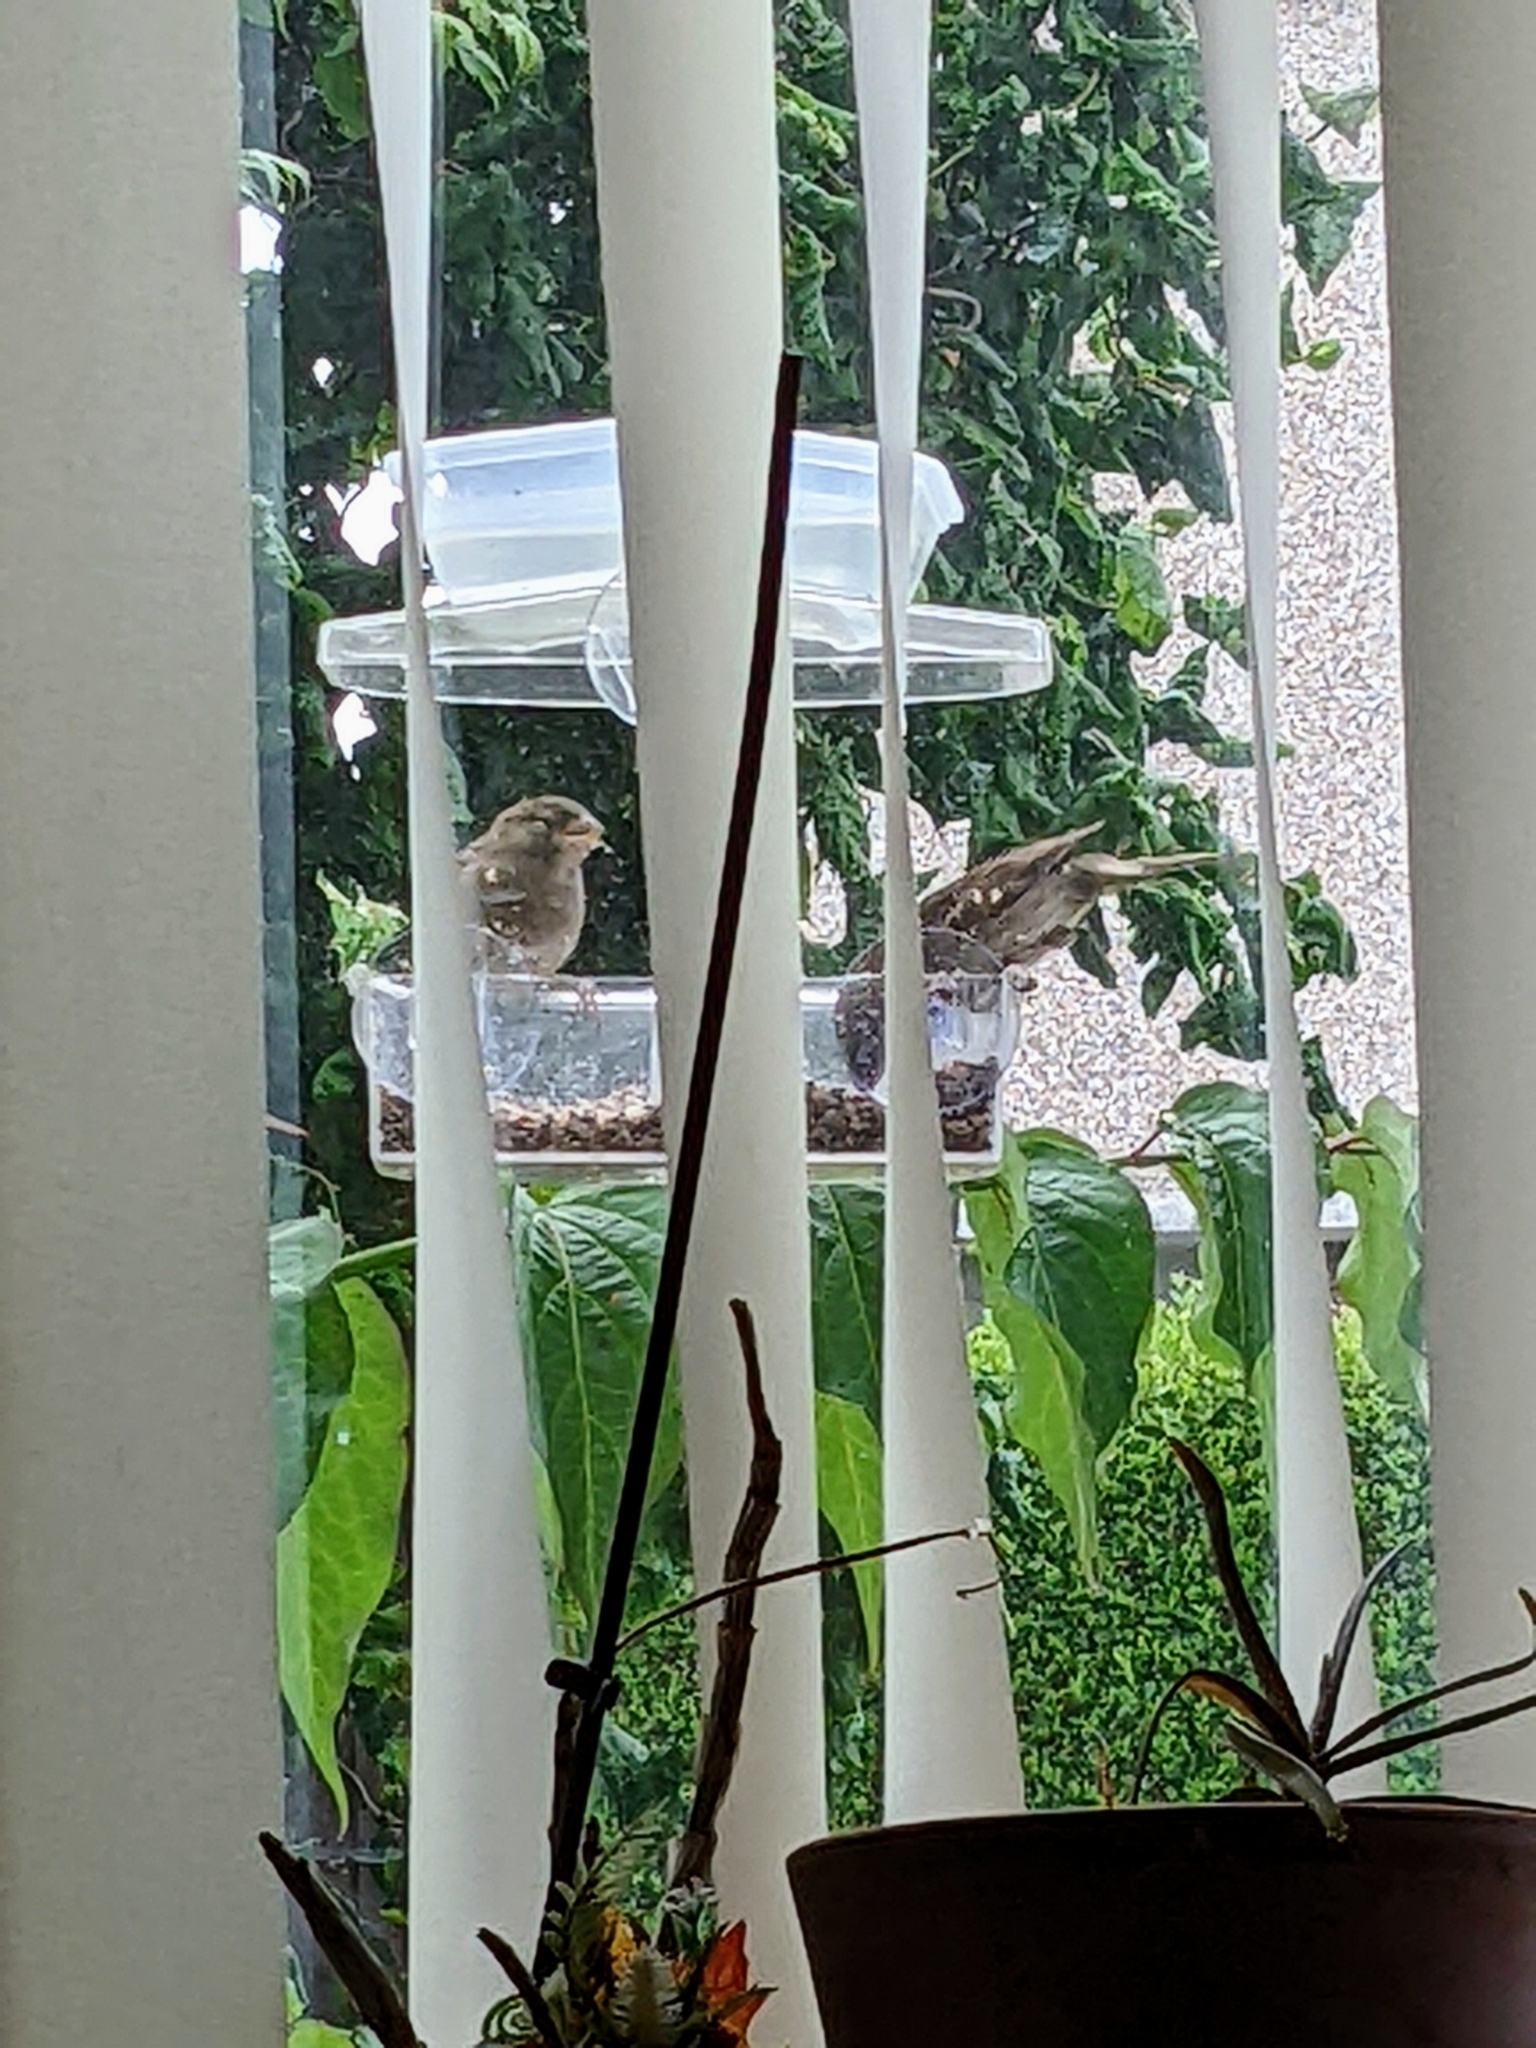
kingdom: Animalia
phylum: Chordata
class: Aves
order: Passeriformes
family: Passeridae
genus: Passer
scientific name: Passer domesticus
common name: House sparrow
